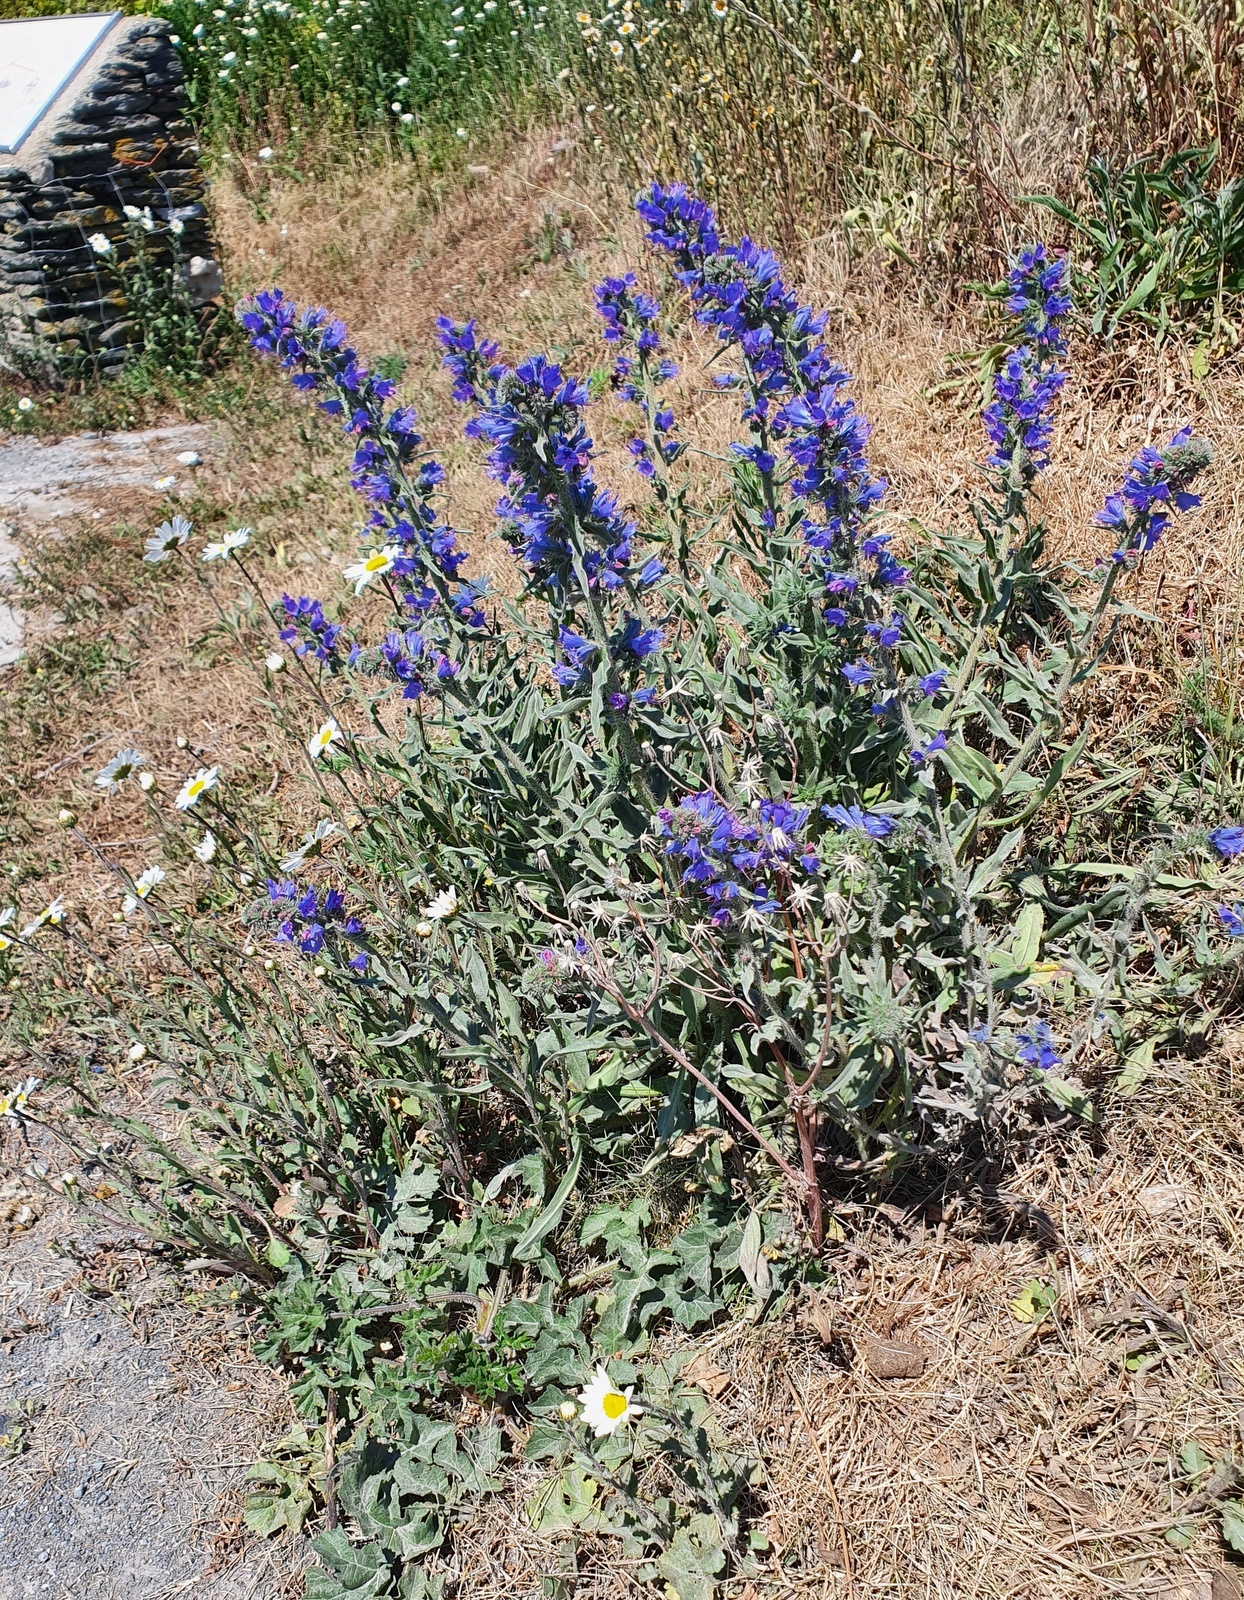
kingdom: Plantae
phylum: Tracheophyta
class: Magnoliopsida
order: Boraginales
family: Boraginaceae
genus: Echium
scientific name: Echium vulgare
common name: Common viper's bugloss
